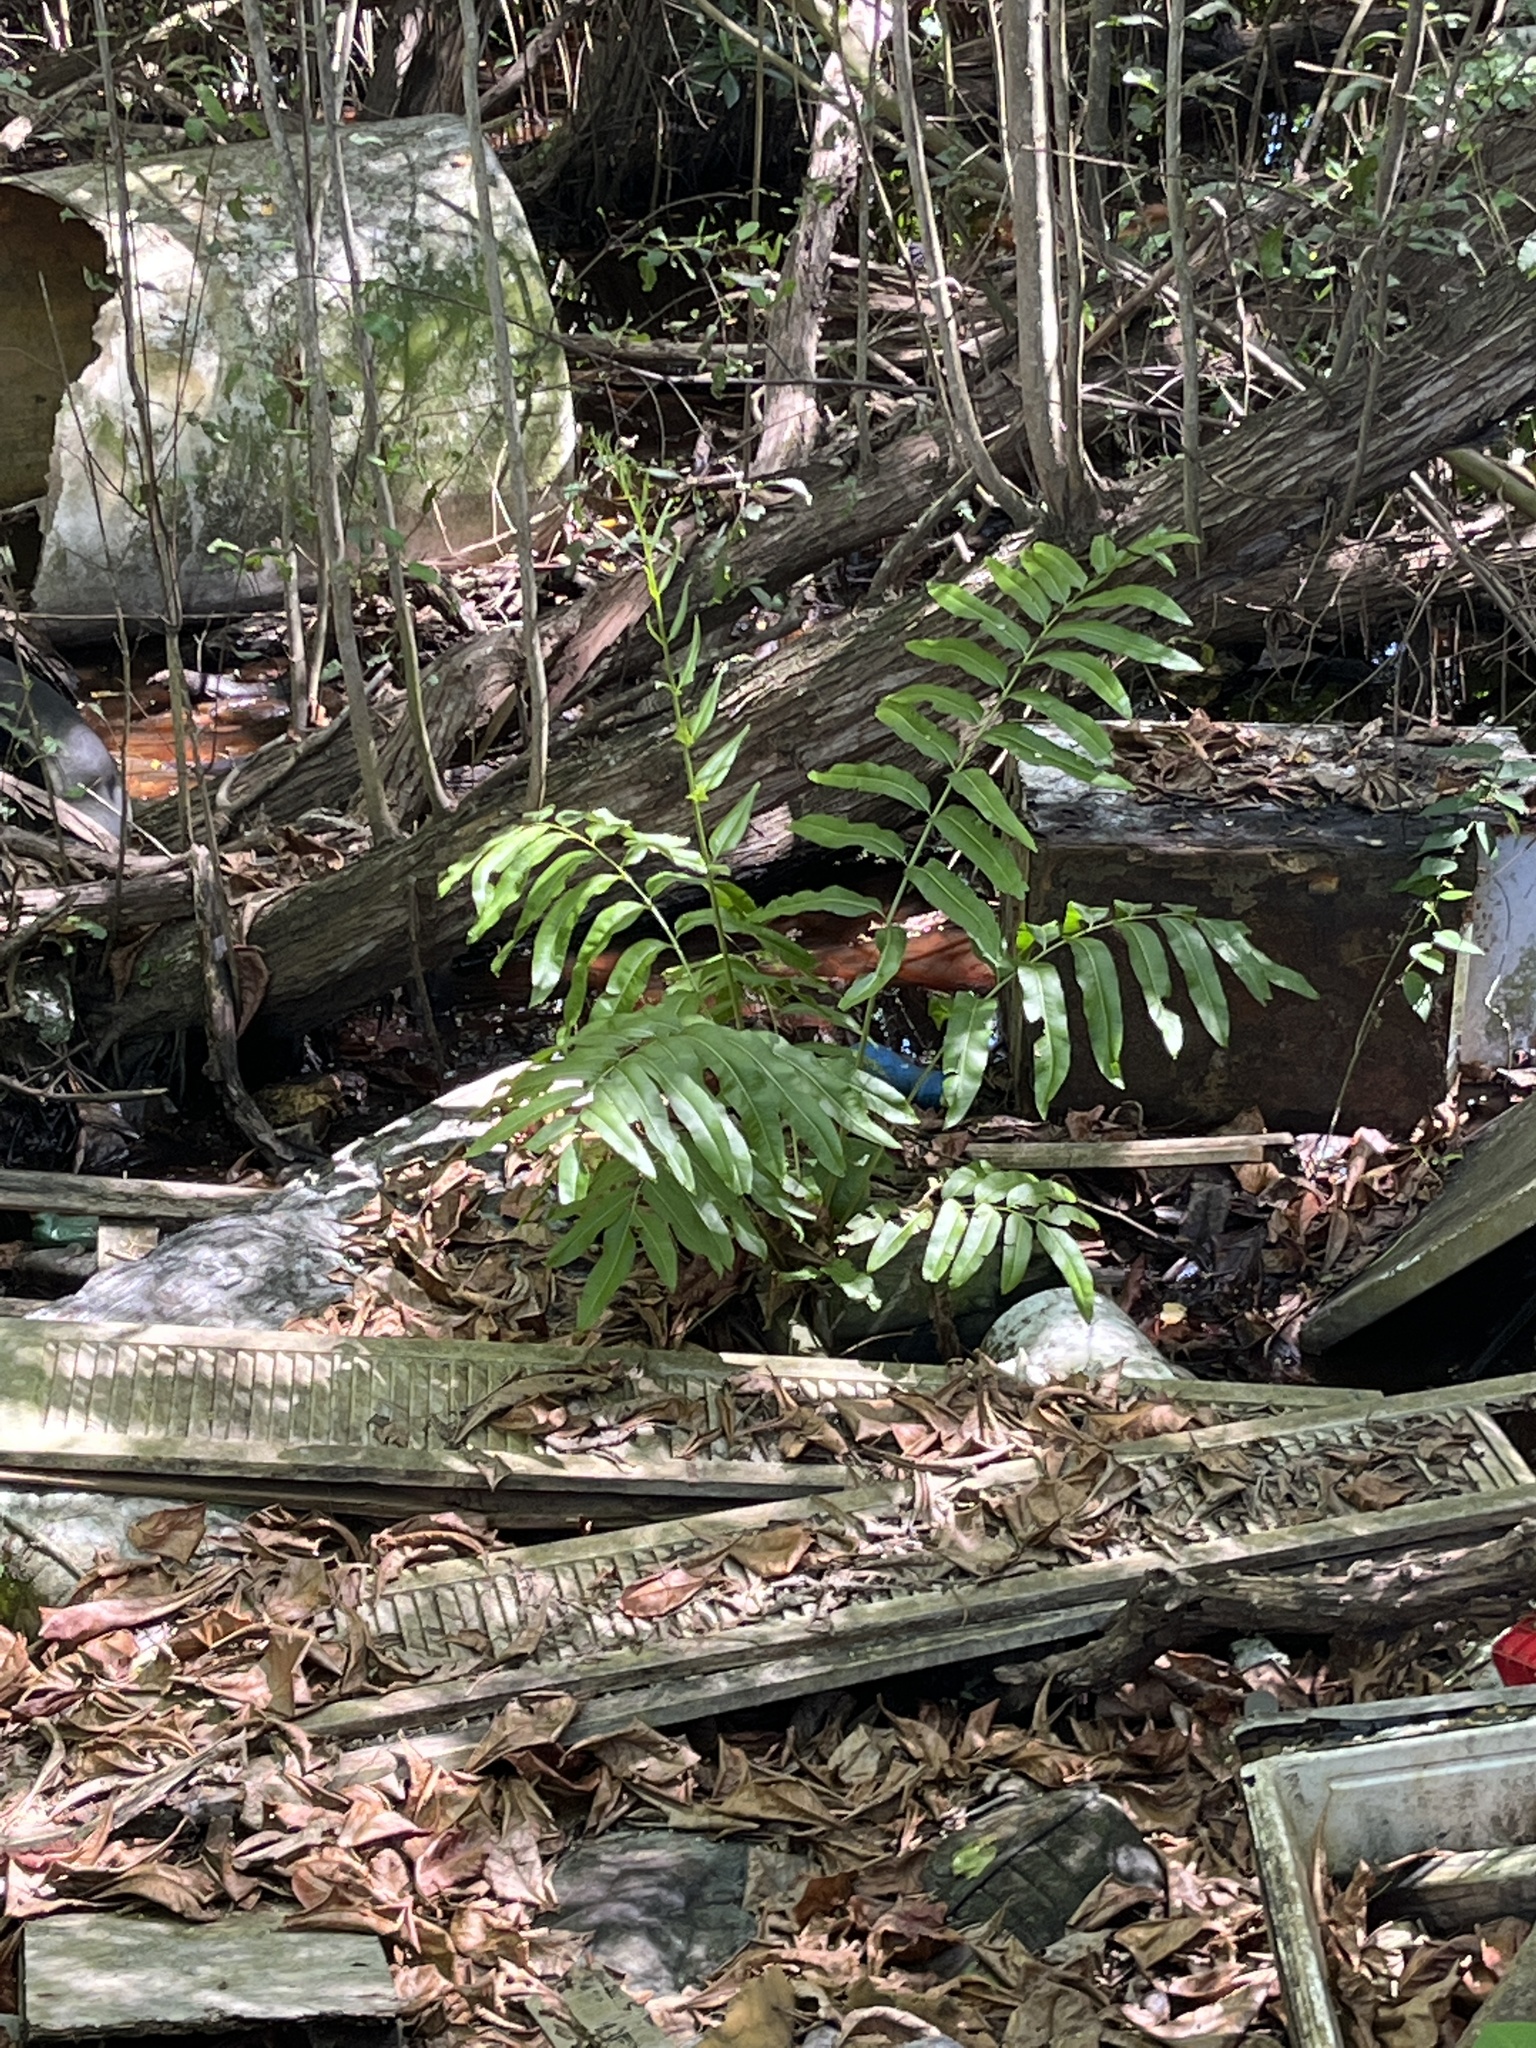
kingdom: Plantae
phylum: Tracheophyta
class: Polypodiopsida
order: Polypodiales
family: Pteridaceae
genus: Acrostichum
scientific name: Acrostichum danaeifolium
